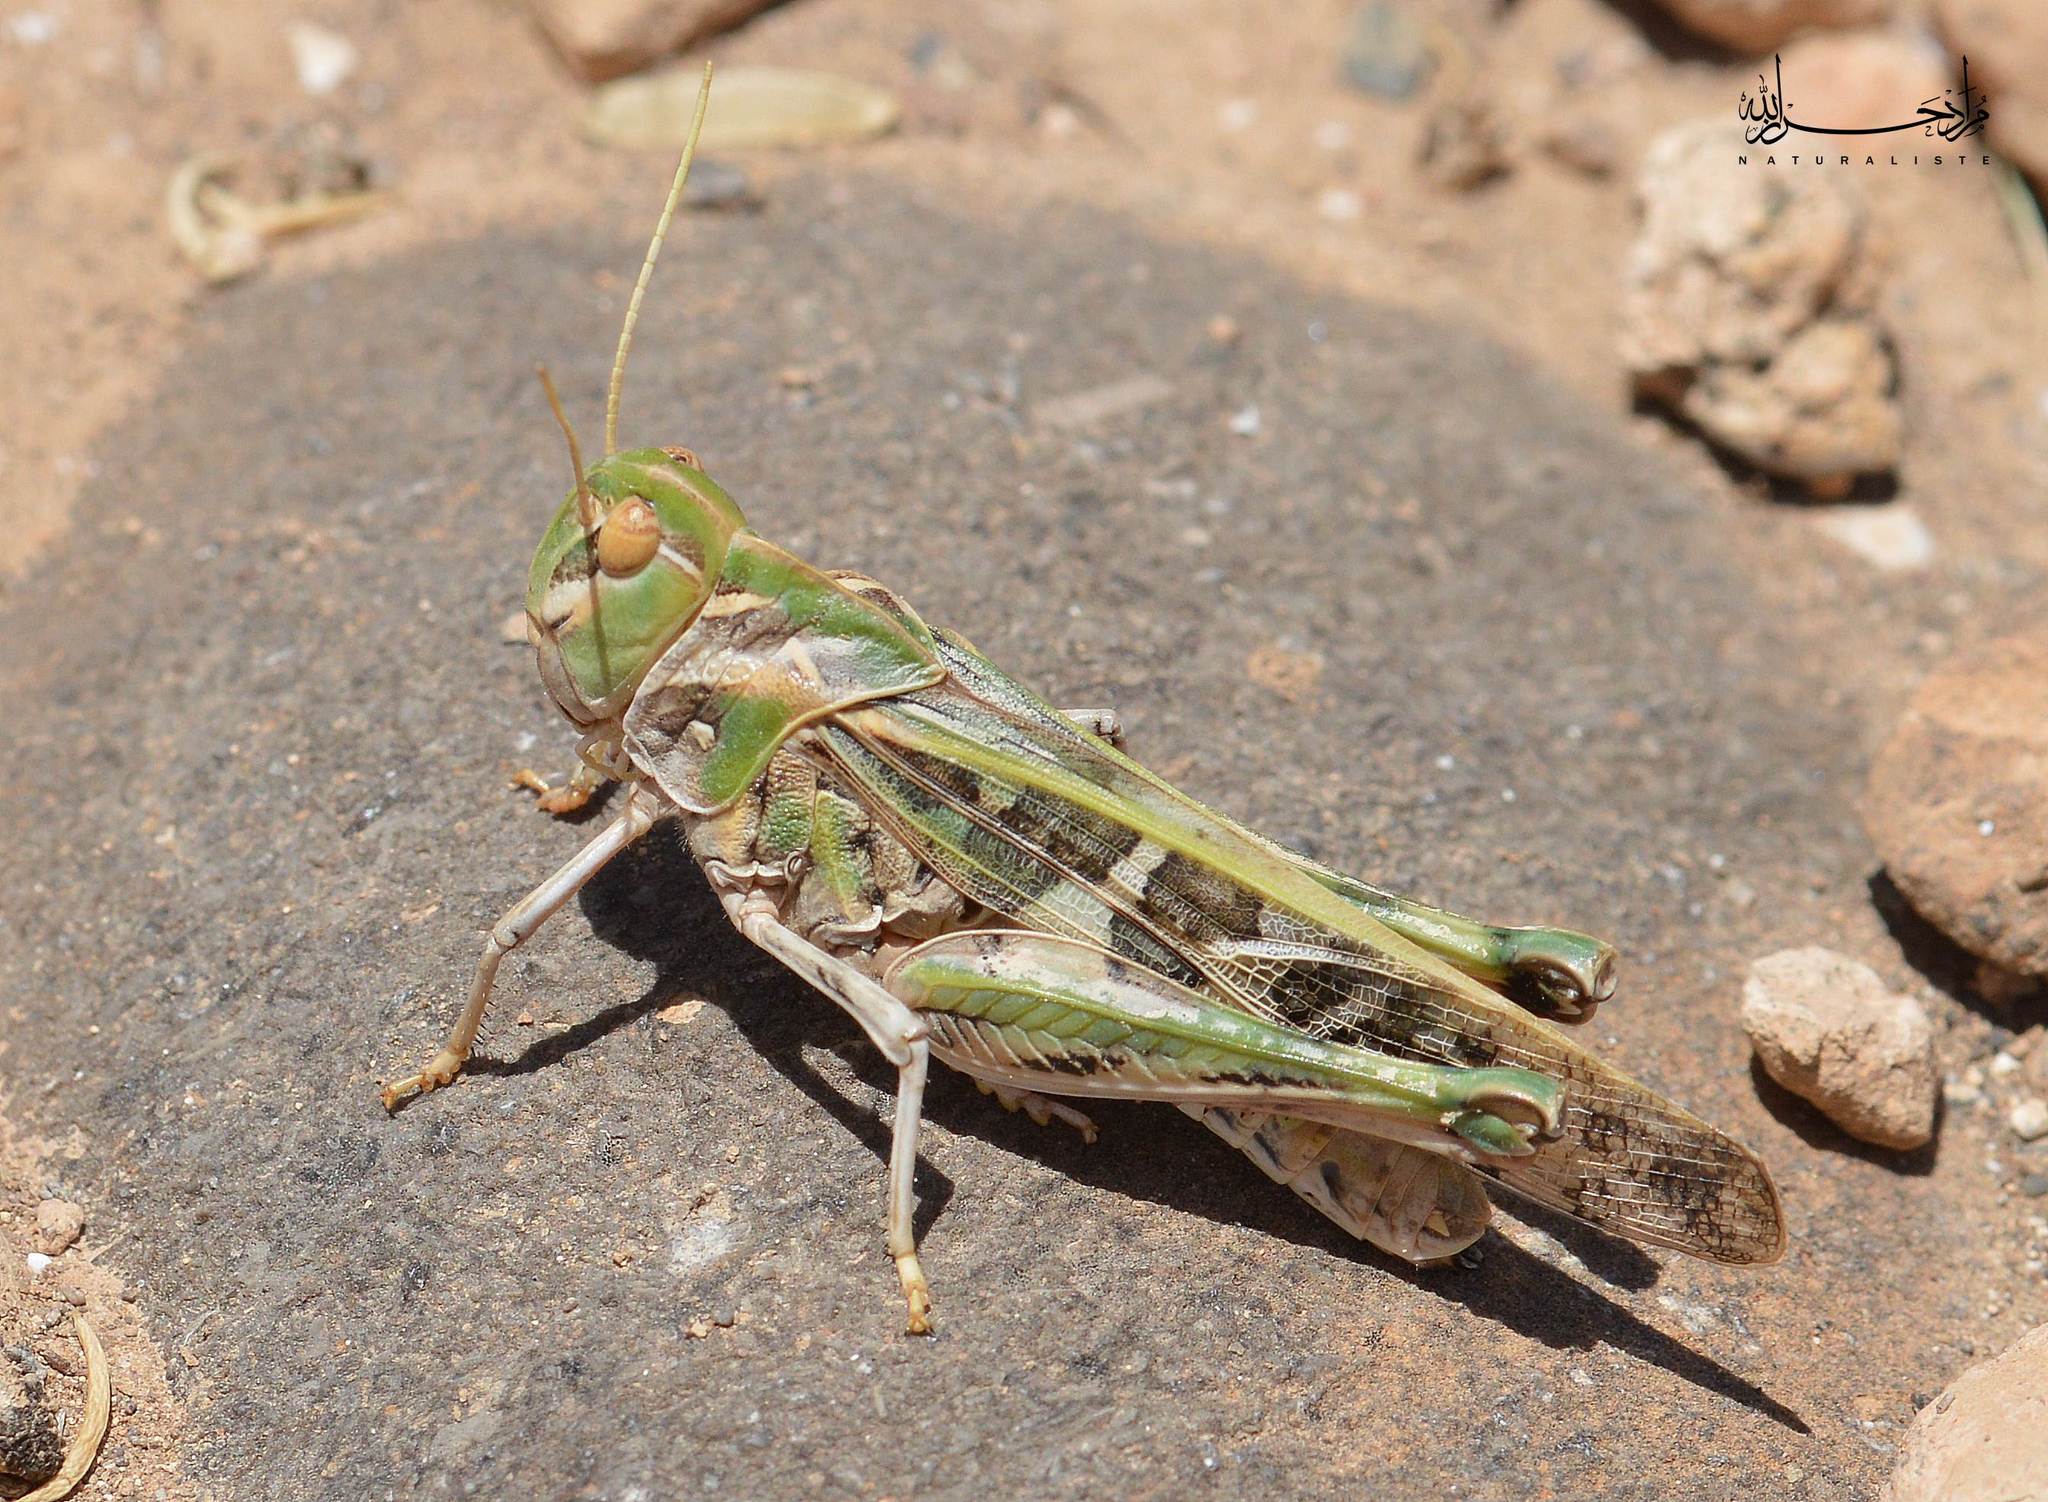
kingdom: Animalia
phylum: Arthropoda
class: Insecta
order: Orthoptera
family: Acrididae
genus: Oedaleus
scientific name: Oedaleus decorus
